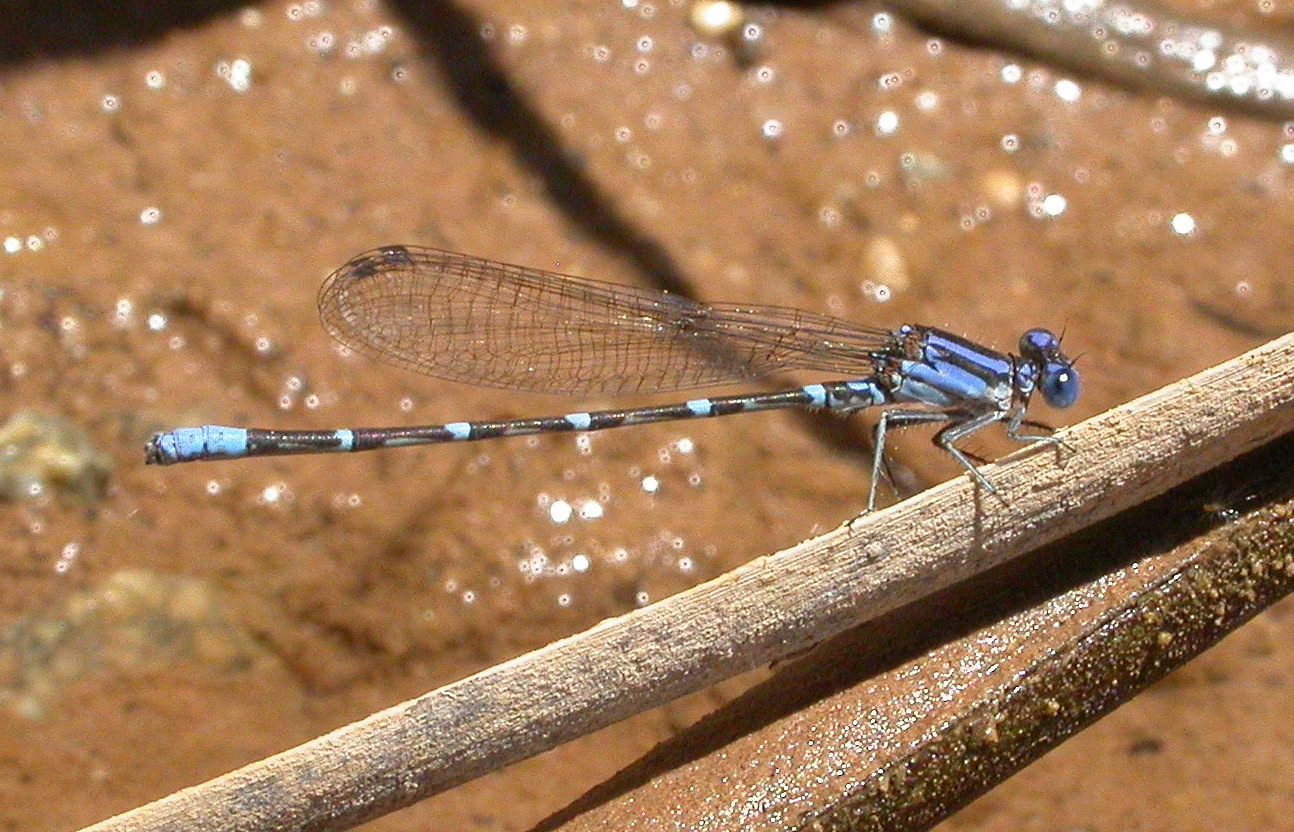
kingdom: Animalia
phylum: Arthropoda
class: Insecta
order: Odonata
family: Coenagrionidae
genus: Argia
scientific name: Argia sedula
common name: Blue-ringed dancer
